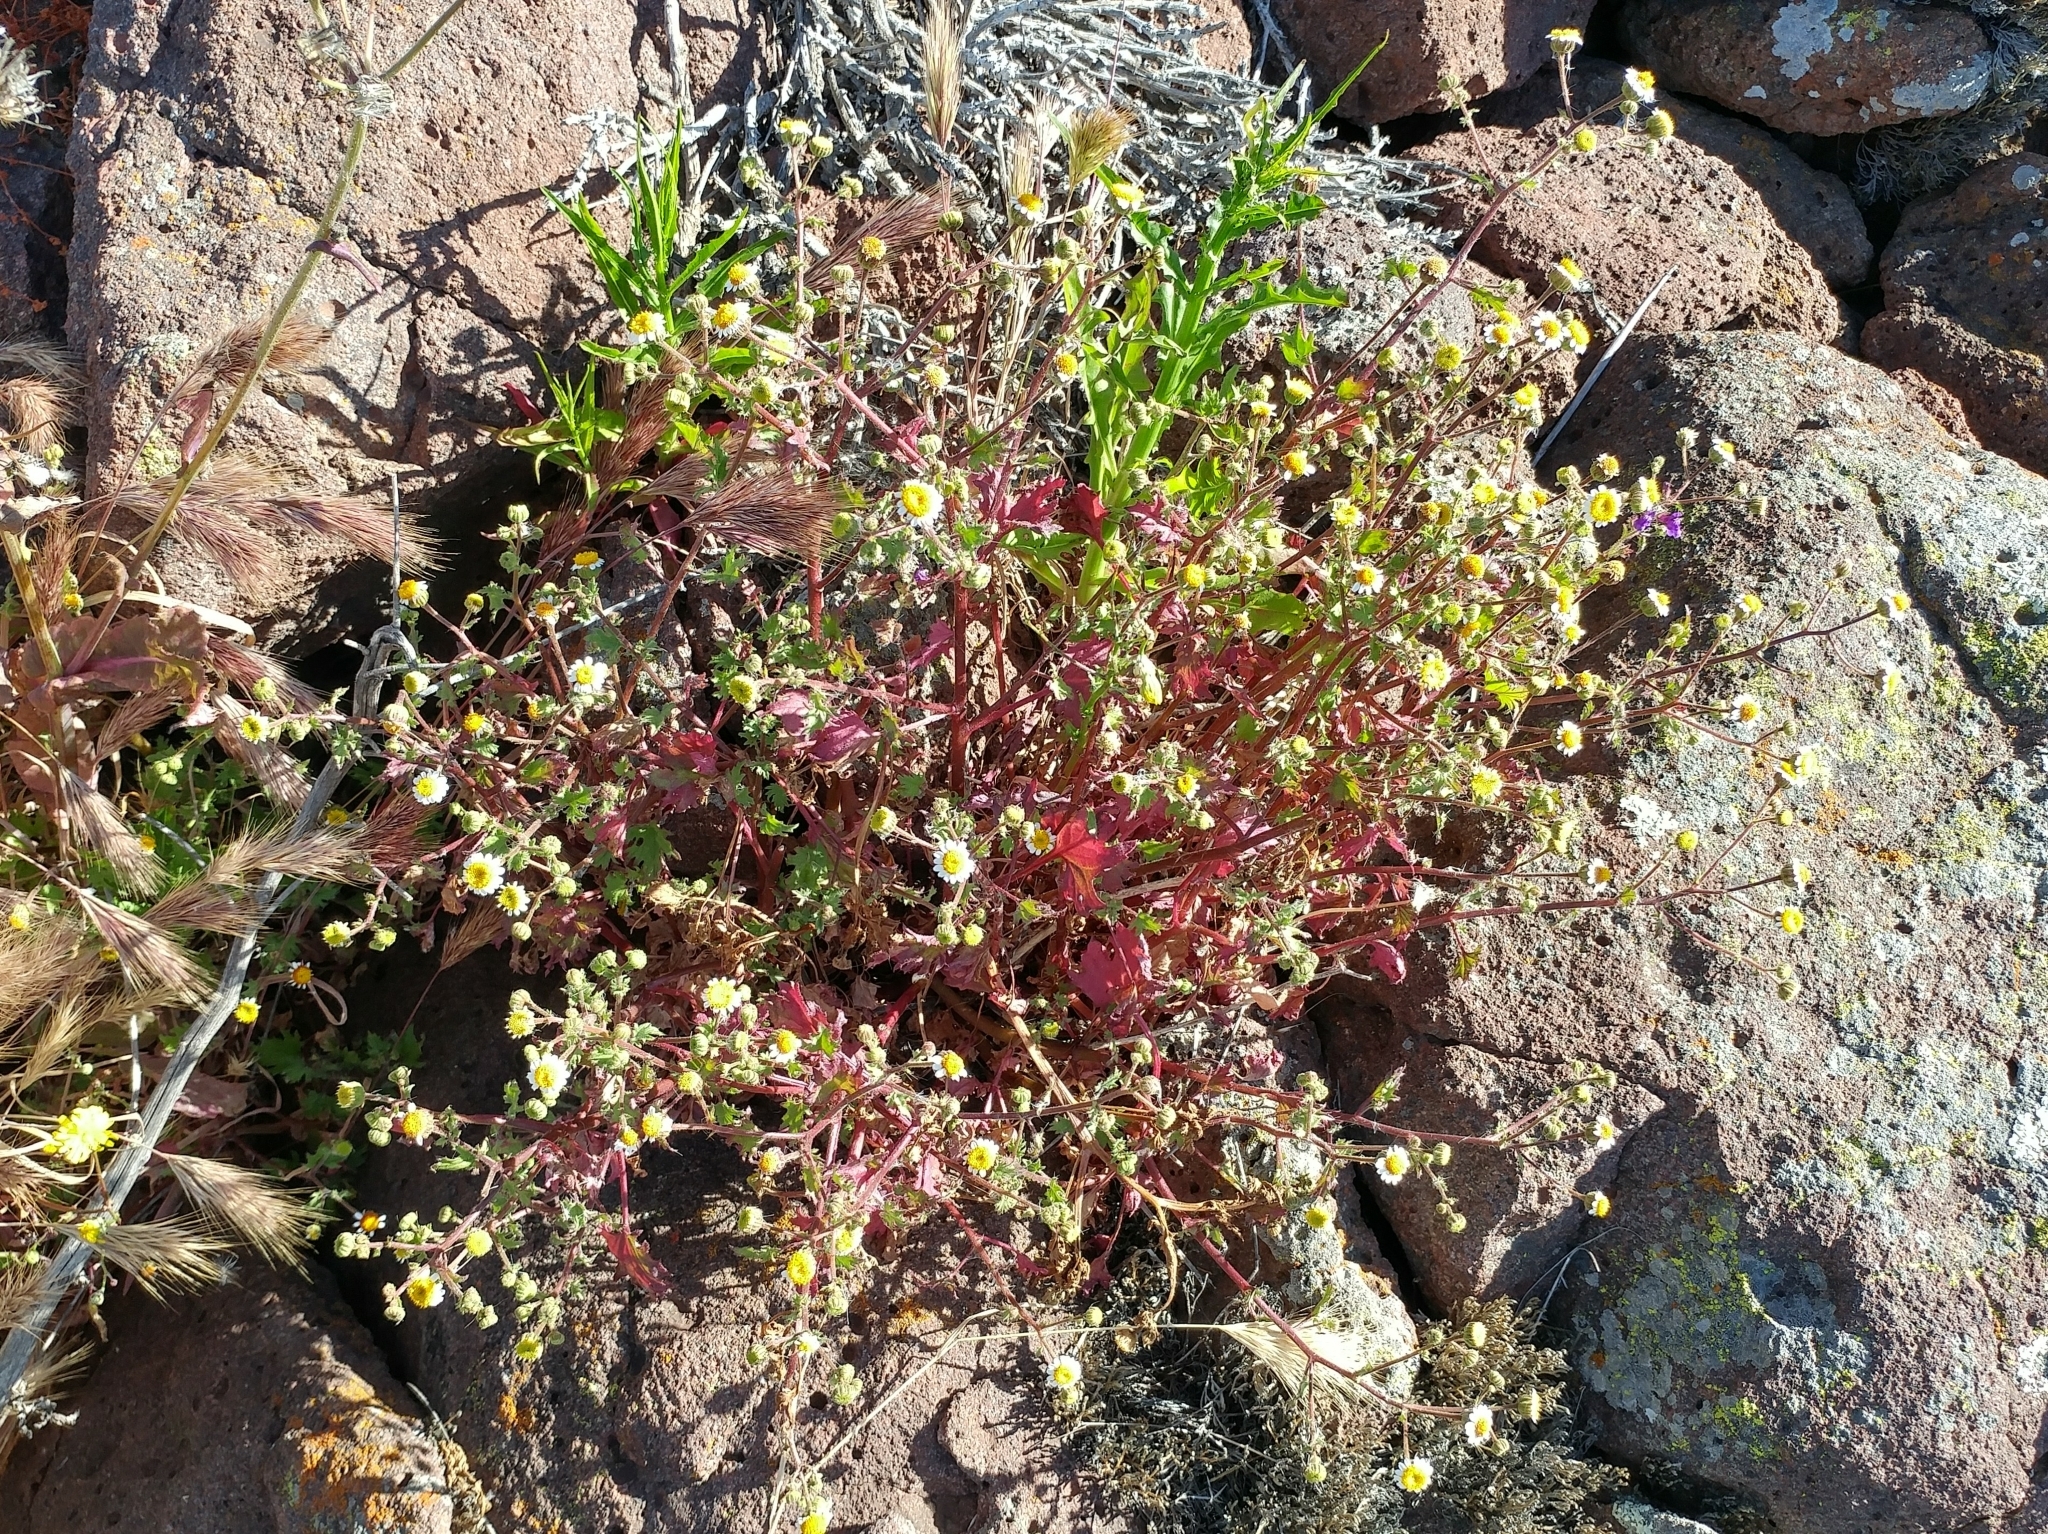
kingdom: Plantae
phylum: Tracheophyta
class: Magnoliopsida
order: Asterales
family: Asteraceae
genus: Laphamia
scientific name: Laphamia emoryi
